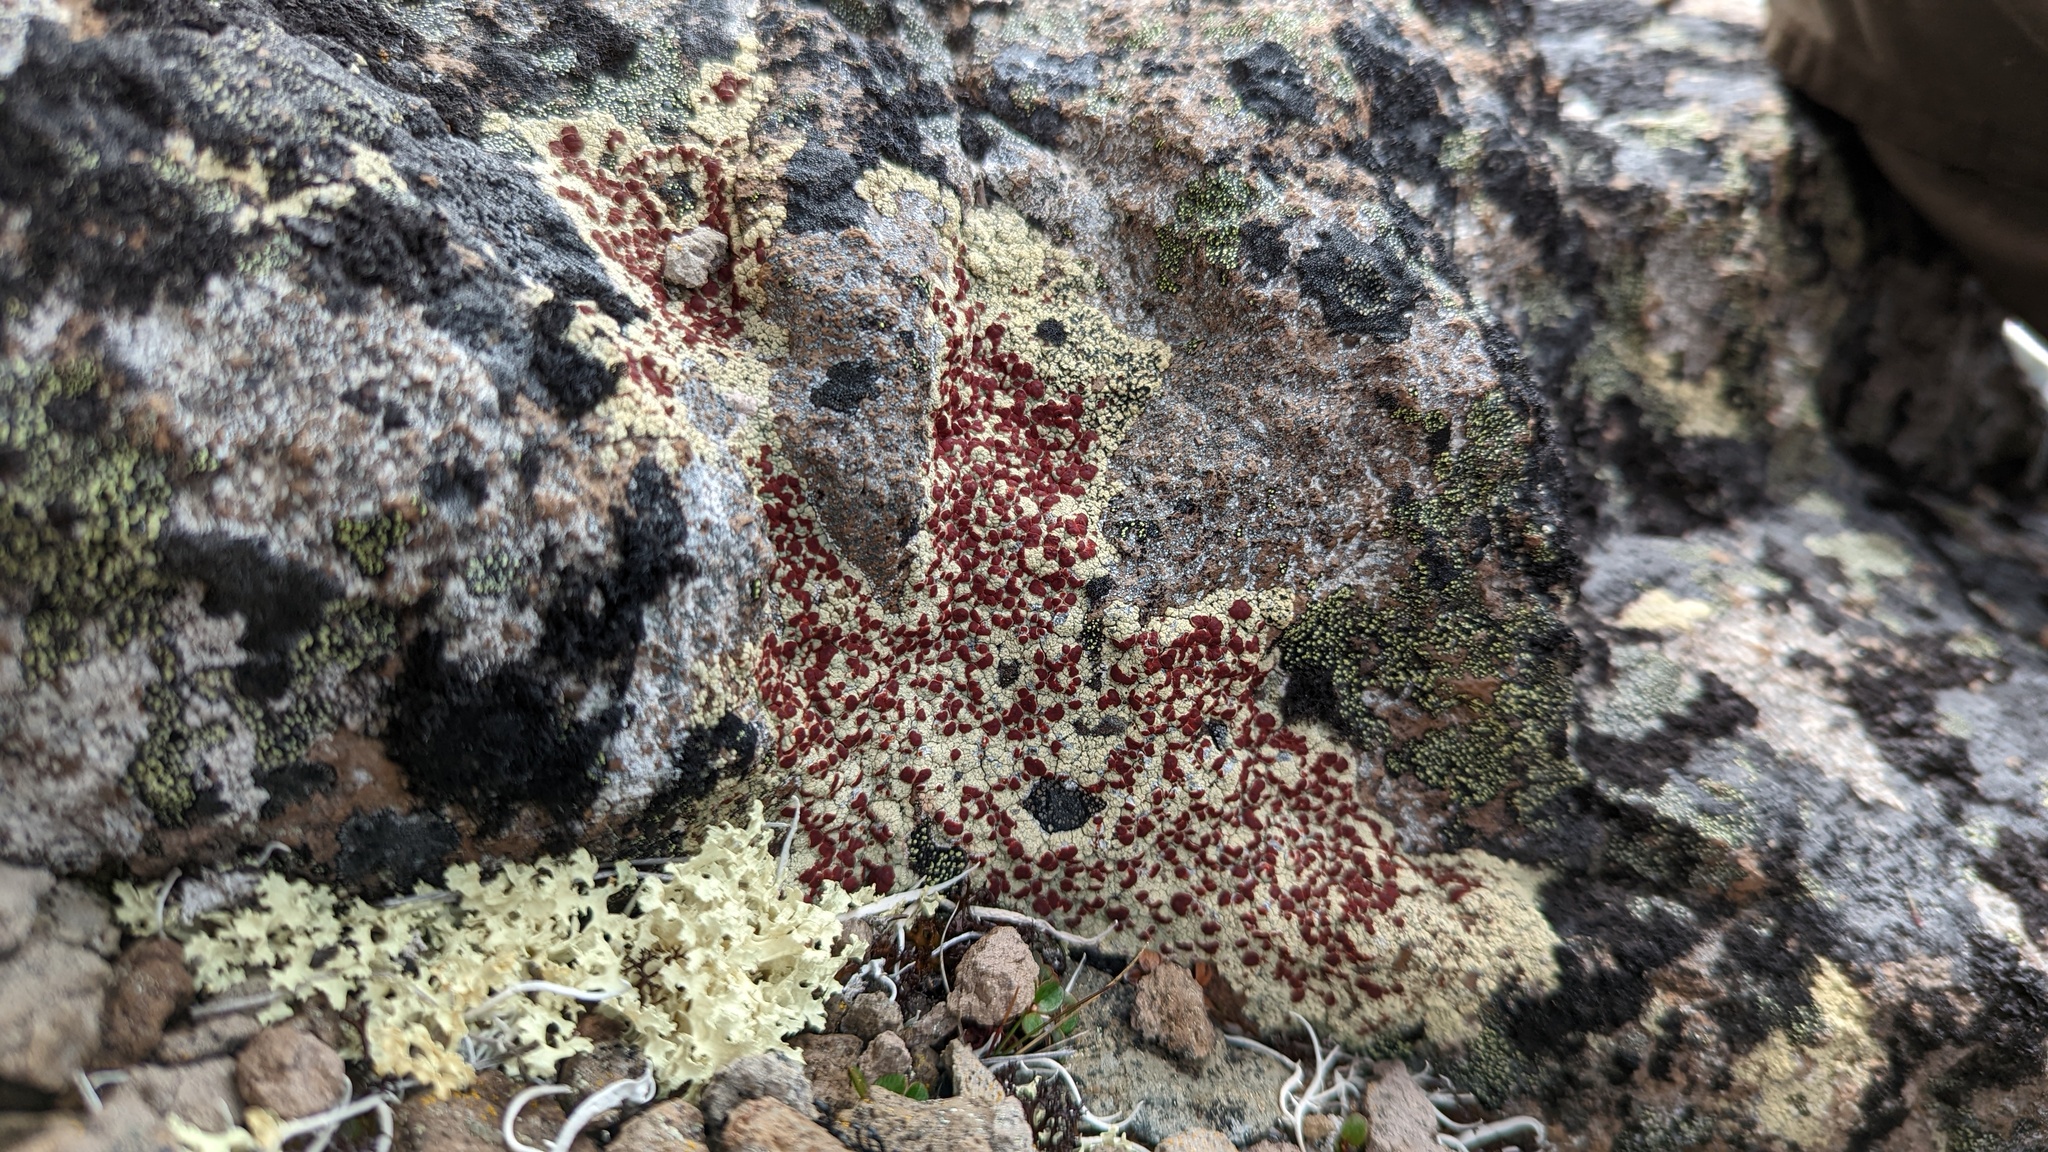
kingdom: Fungi
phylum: Ascomycota
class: Lecanoromycetes
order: Umbilicariales
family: Ophioparmaceae
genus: Ophioparma
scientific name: Ophioparma ventosa
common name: Blood-spot
